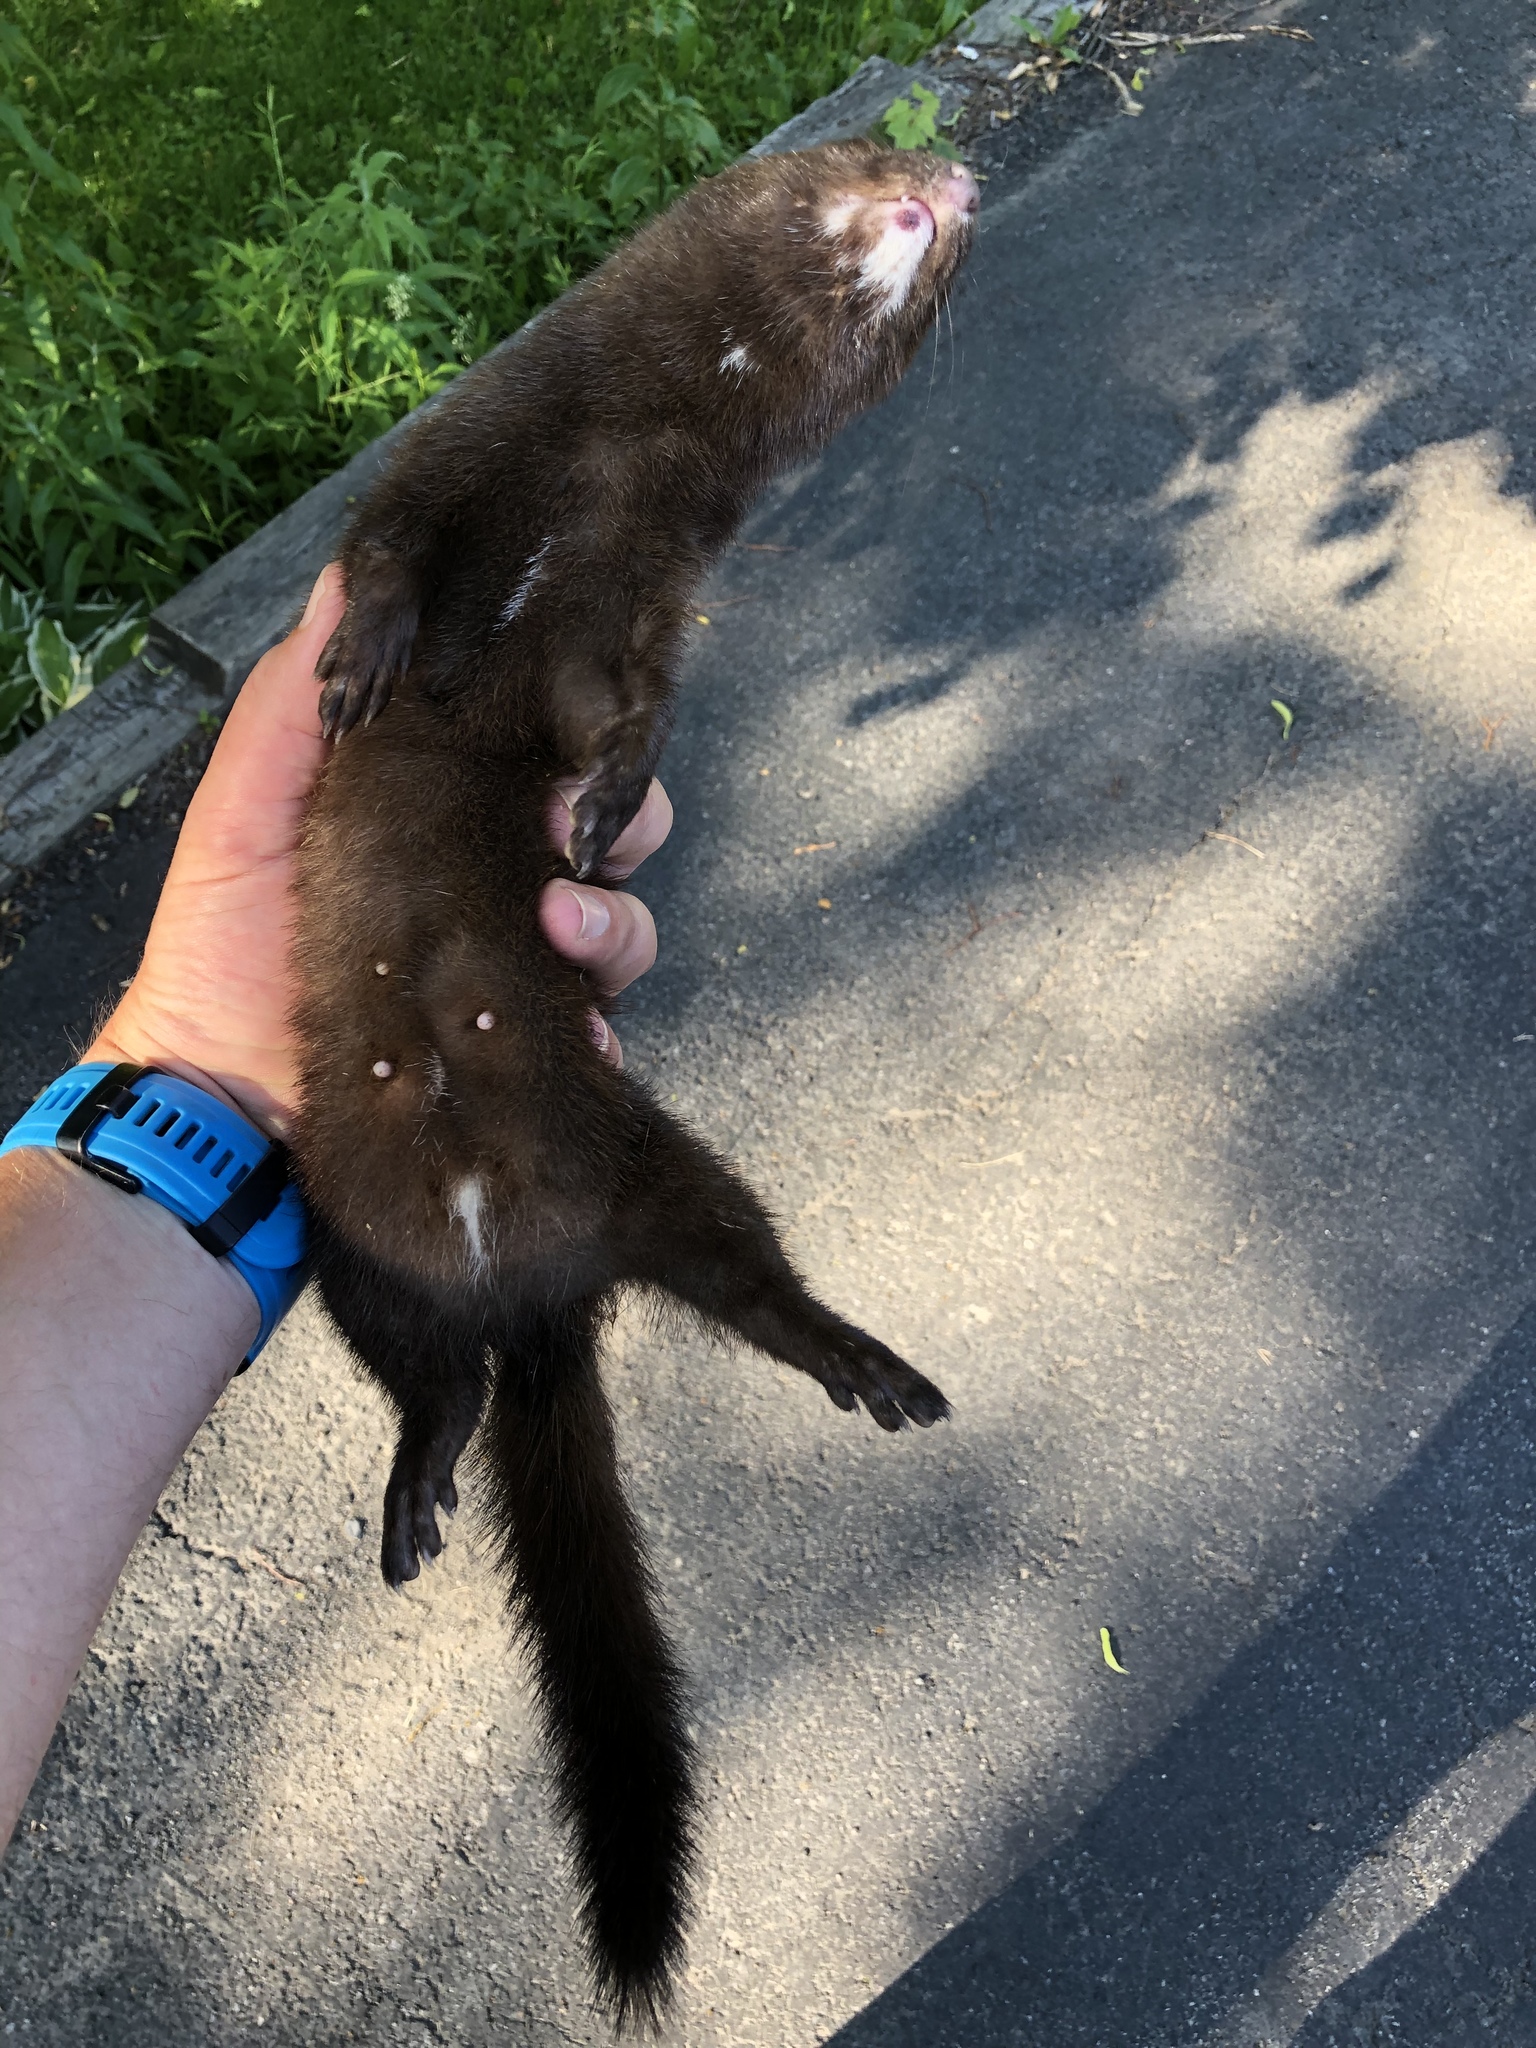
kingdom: Animalia
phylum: Chordata
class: Mammalia
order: Carnivora
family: Mustelidae
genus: Mustela
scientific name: Mustela
